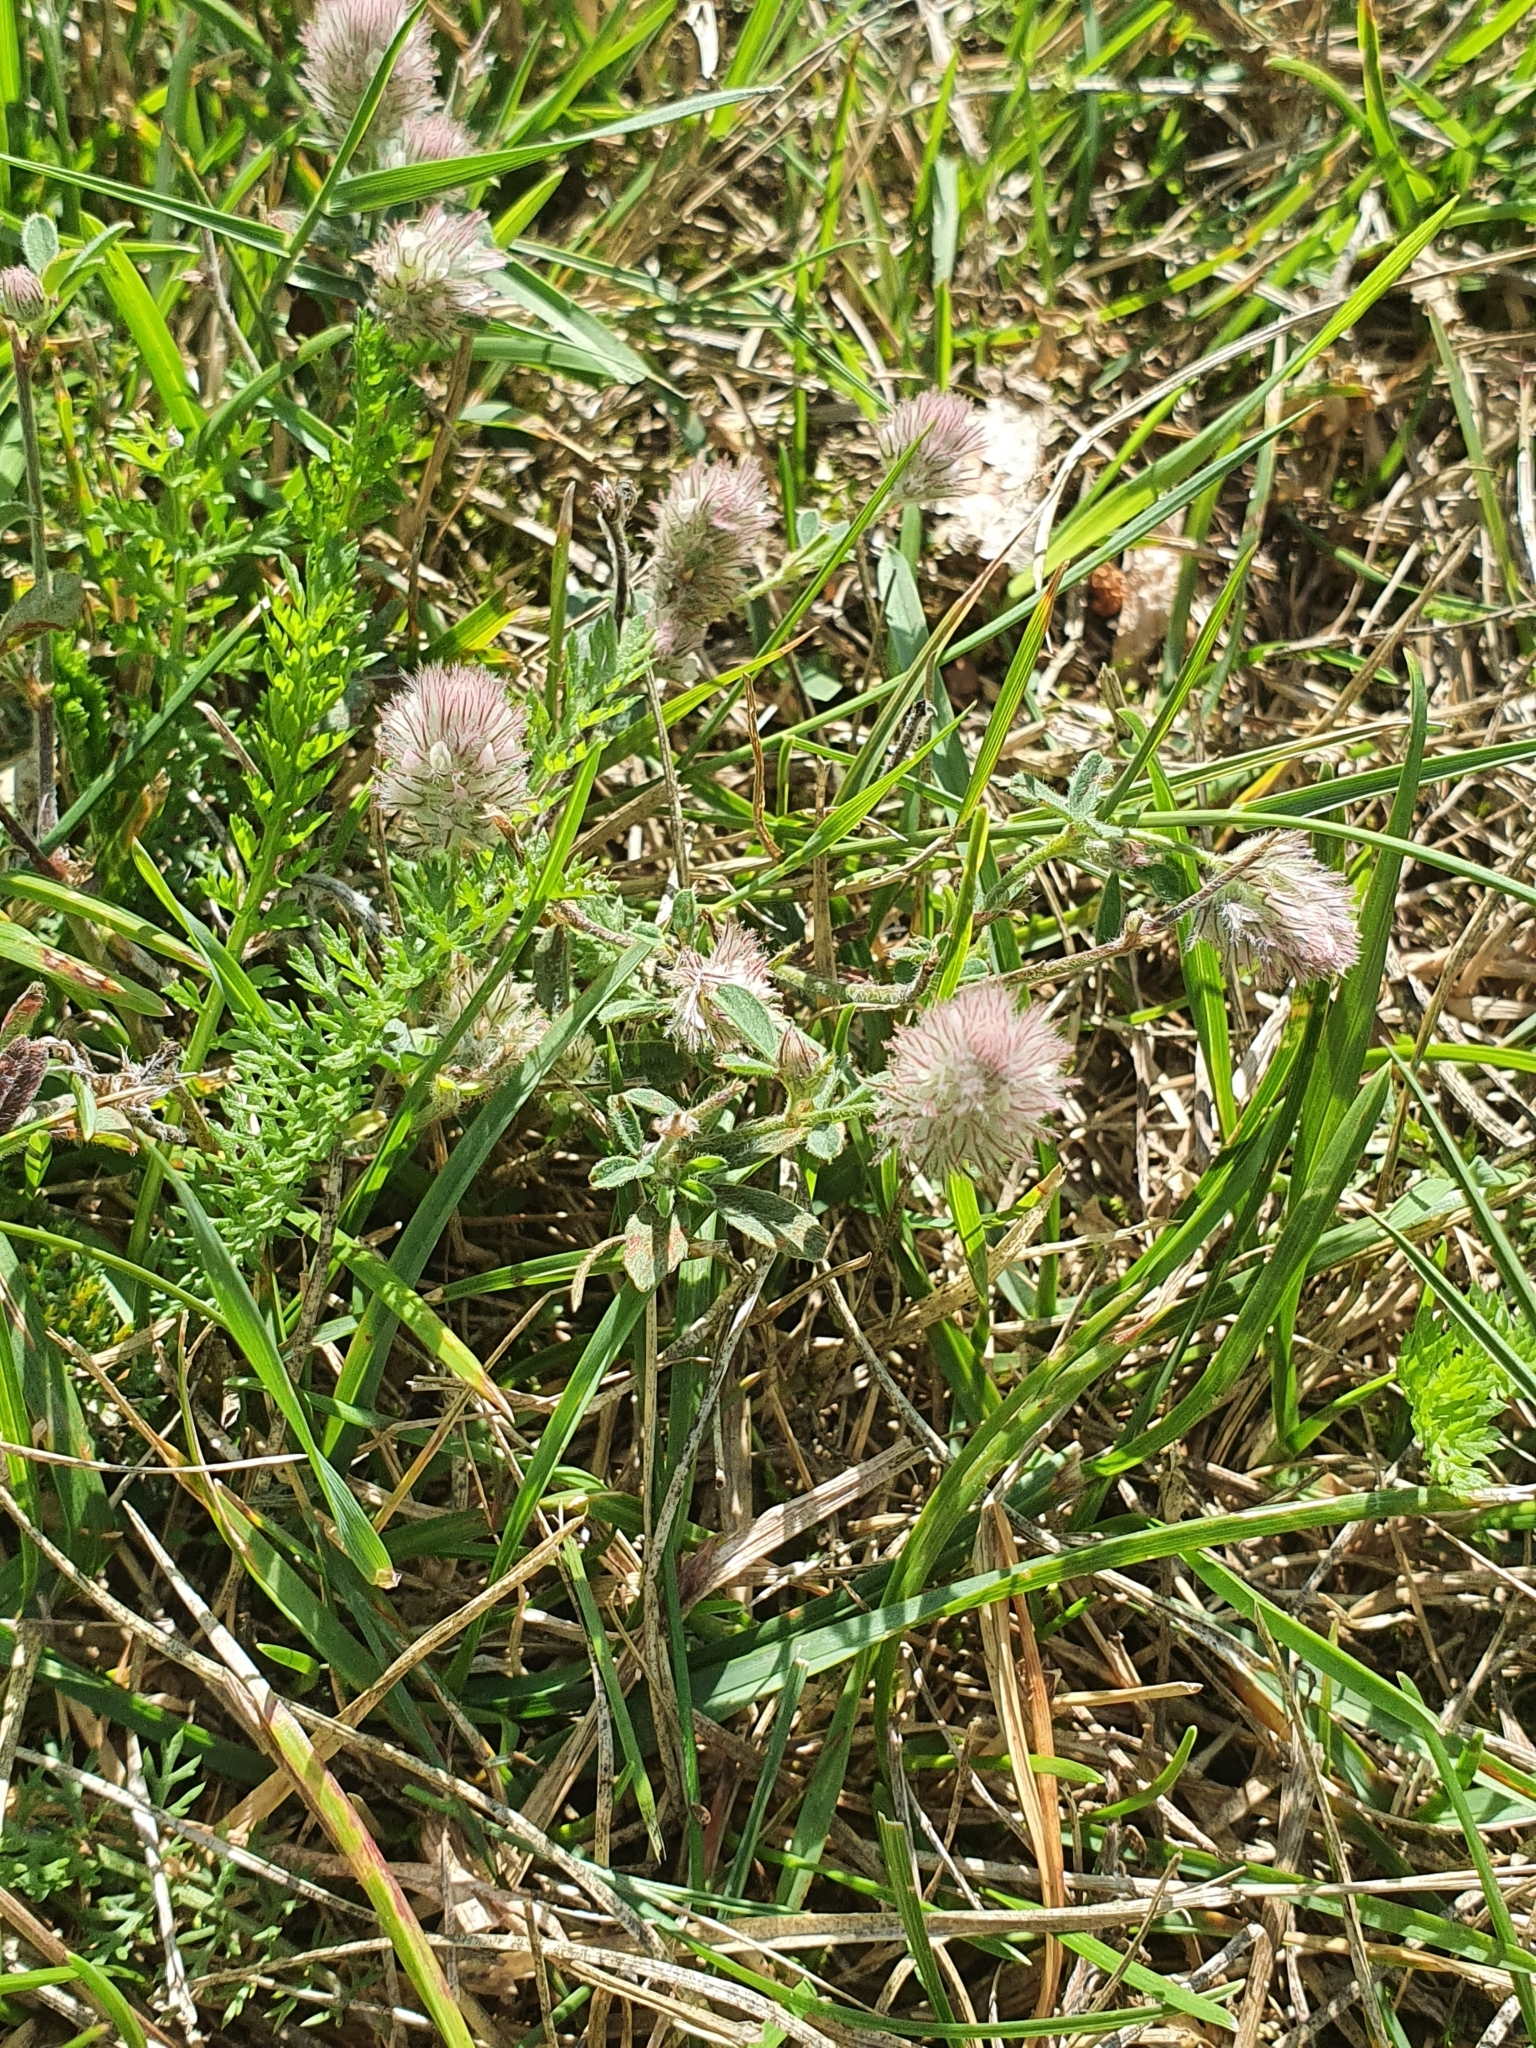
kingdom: Plantae
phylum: Tracheophyta
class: Magnoliopsida
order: Fabales
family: Fabaceae
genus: Trifolium
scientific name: Trifolium arvense
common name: Hare's-foot clover
